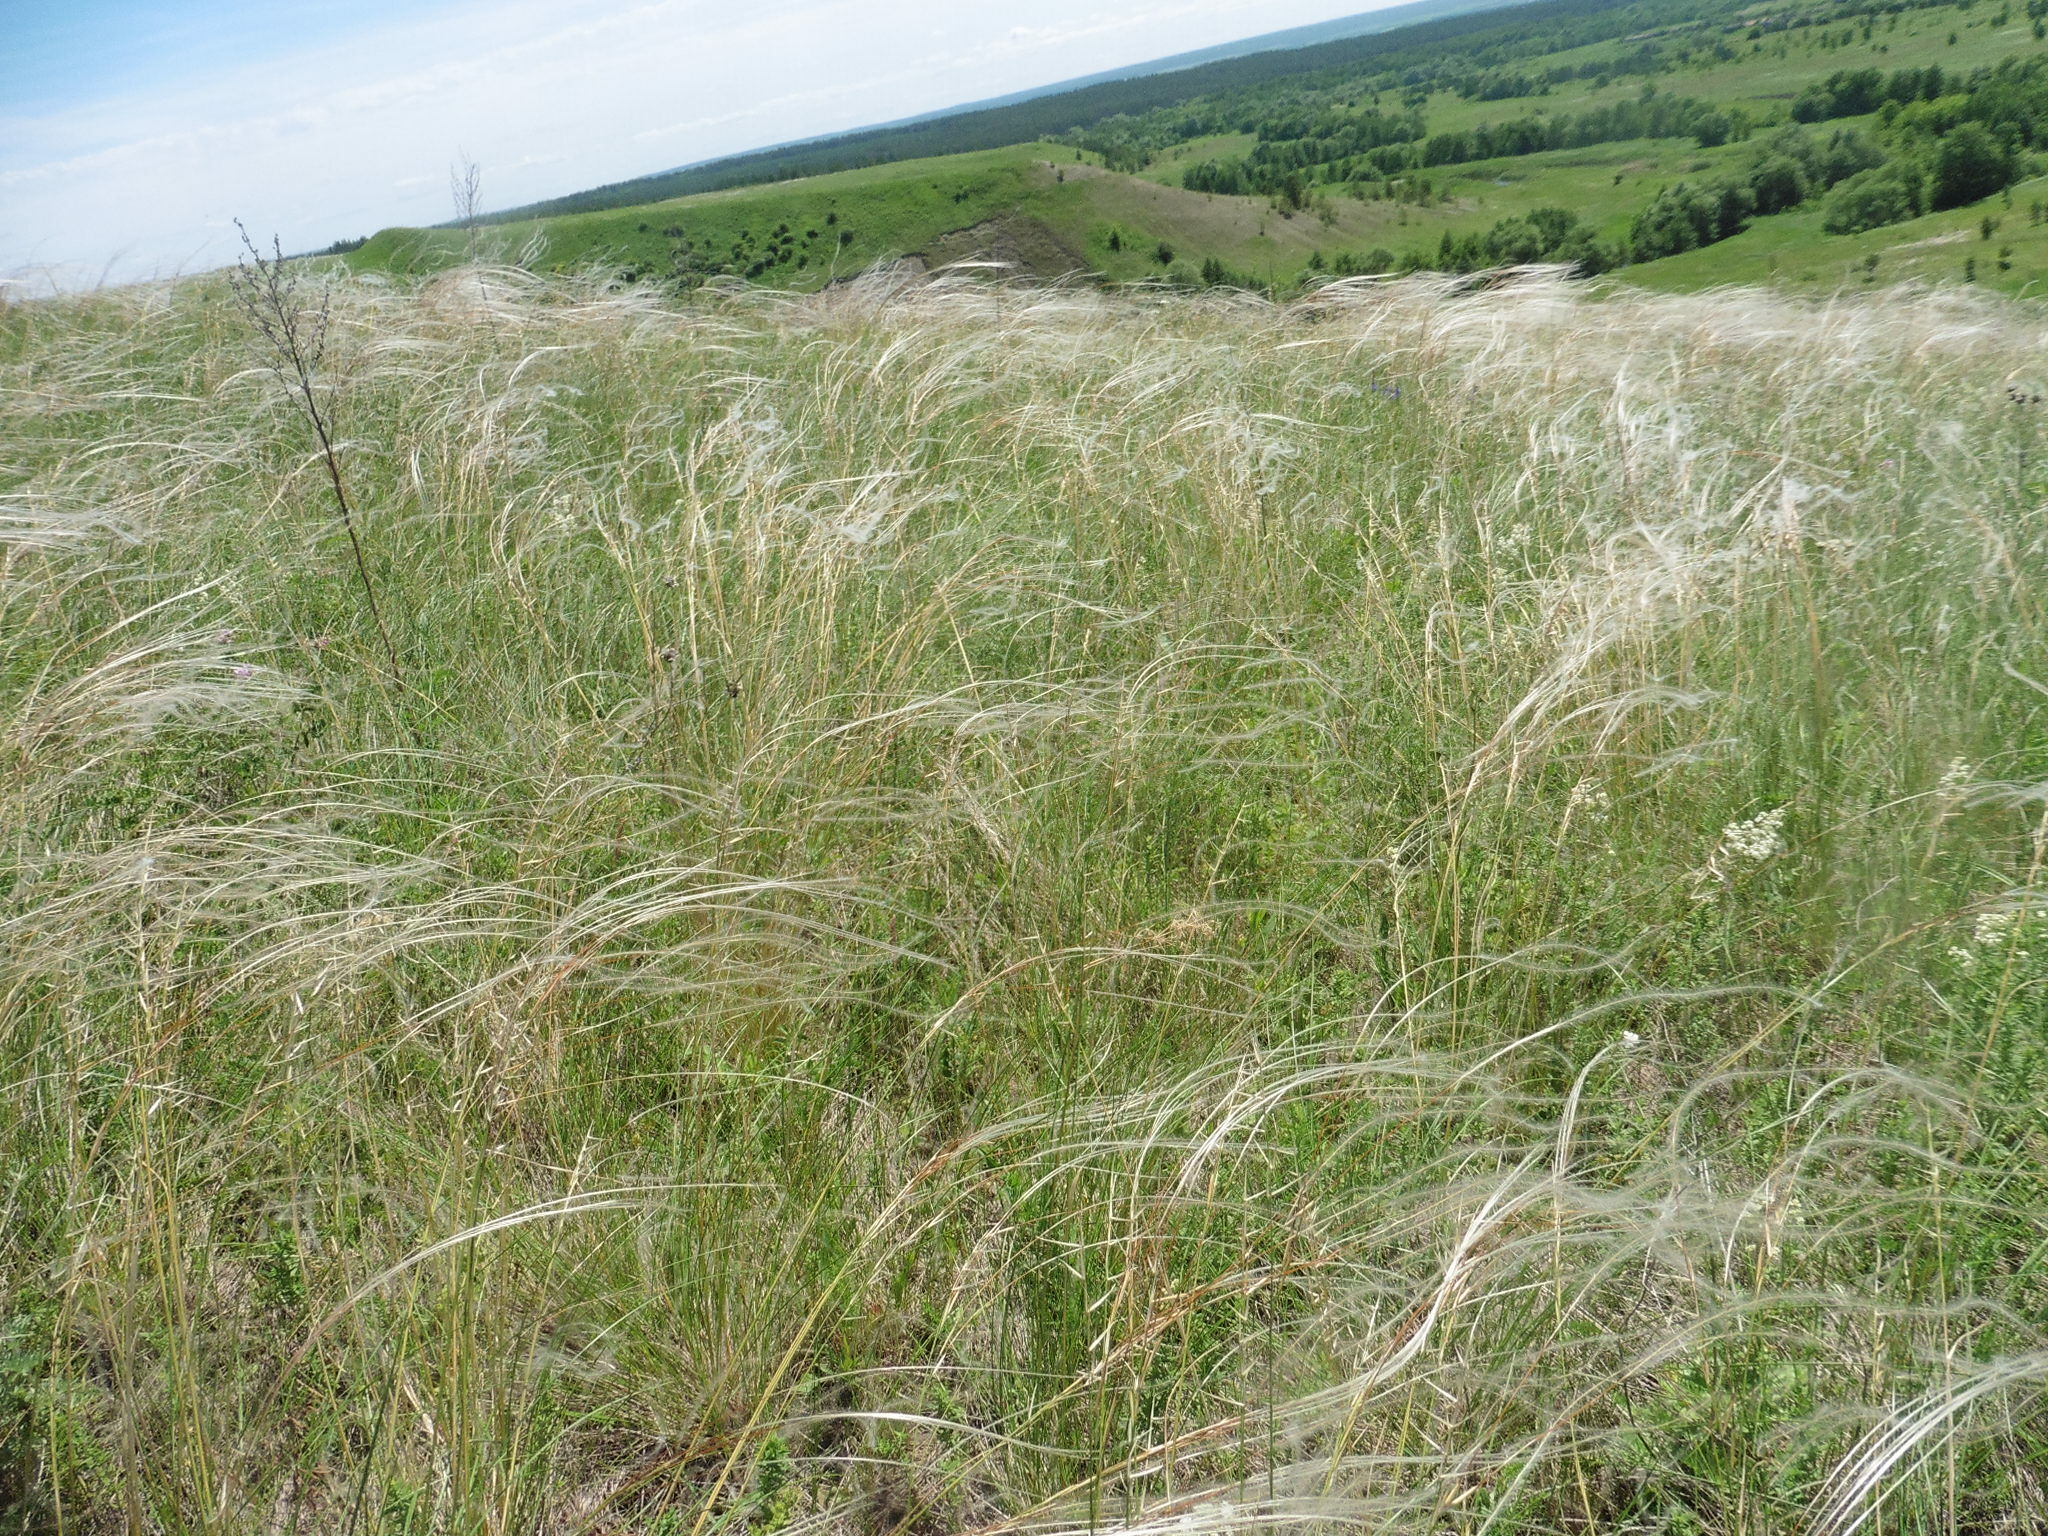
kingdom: Plantae
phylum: Tracheophyta
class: Liliopsida
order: Poales
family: Poaceae
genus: Stipa
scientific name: Stipa pennata
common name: European feather grass
